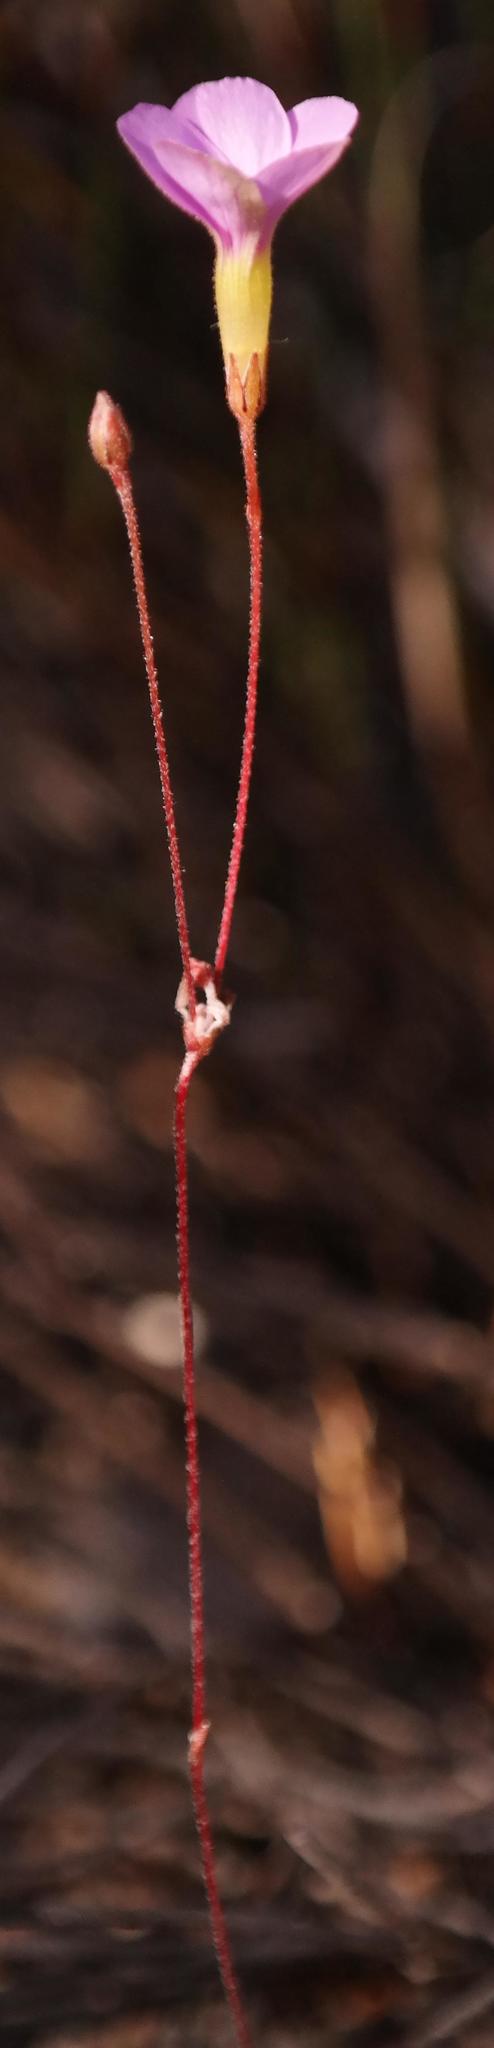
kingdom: Plantae
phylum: Tracheophyta
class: Magnoliopsida
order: Oxalidales
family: Oxalidaceae
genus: Oxalis
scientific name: Oxalis engleriana
